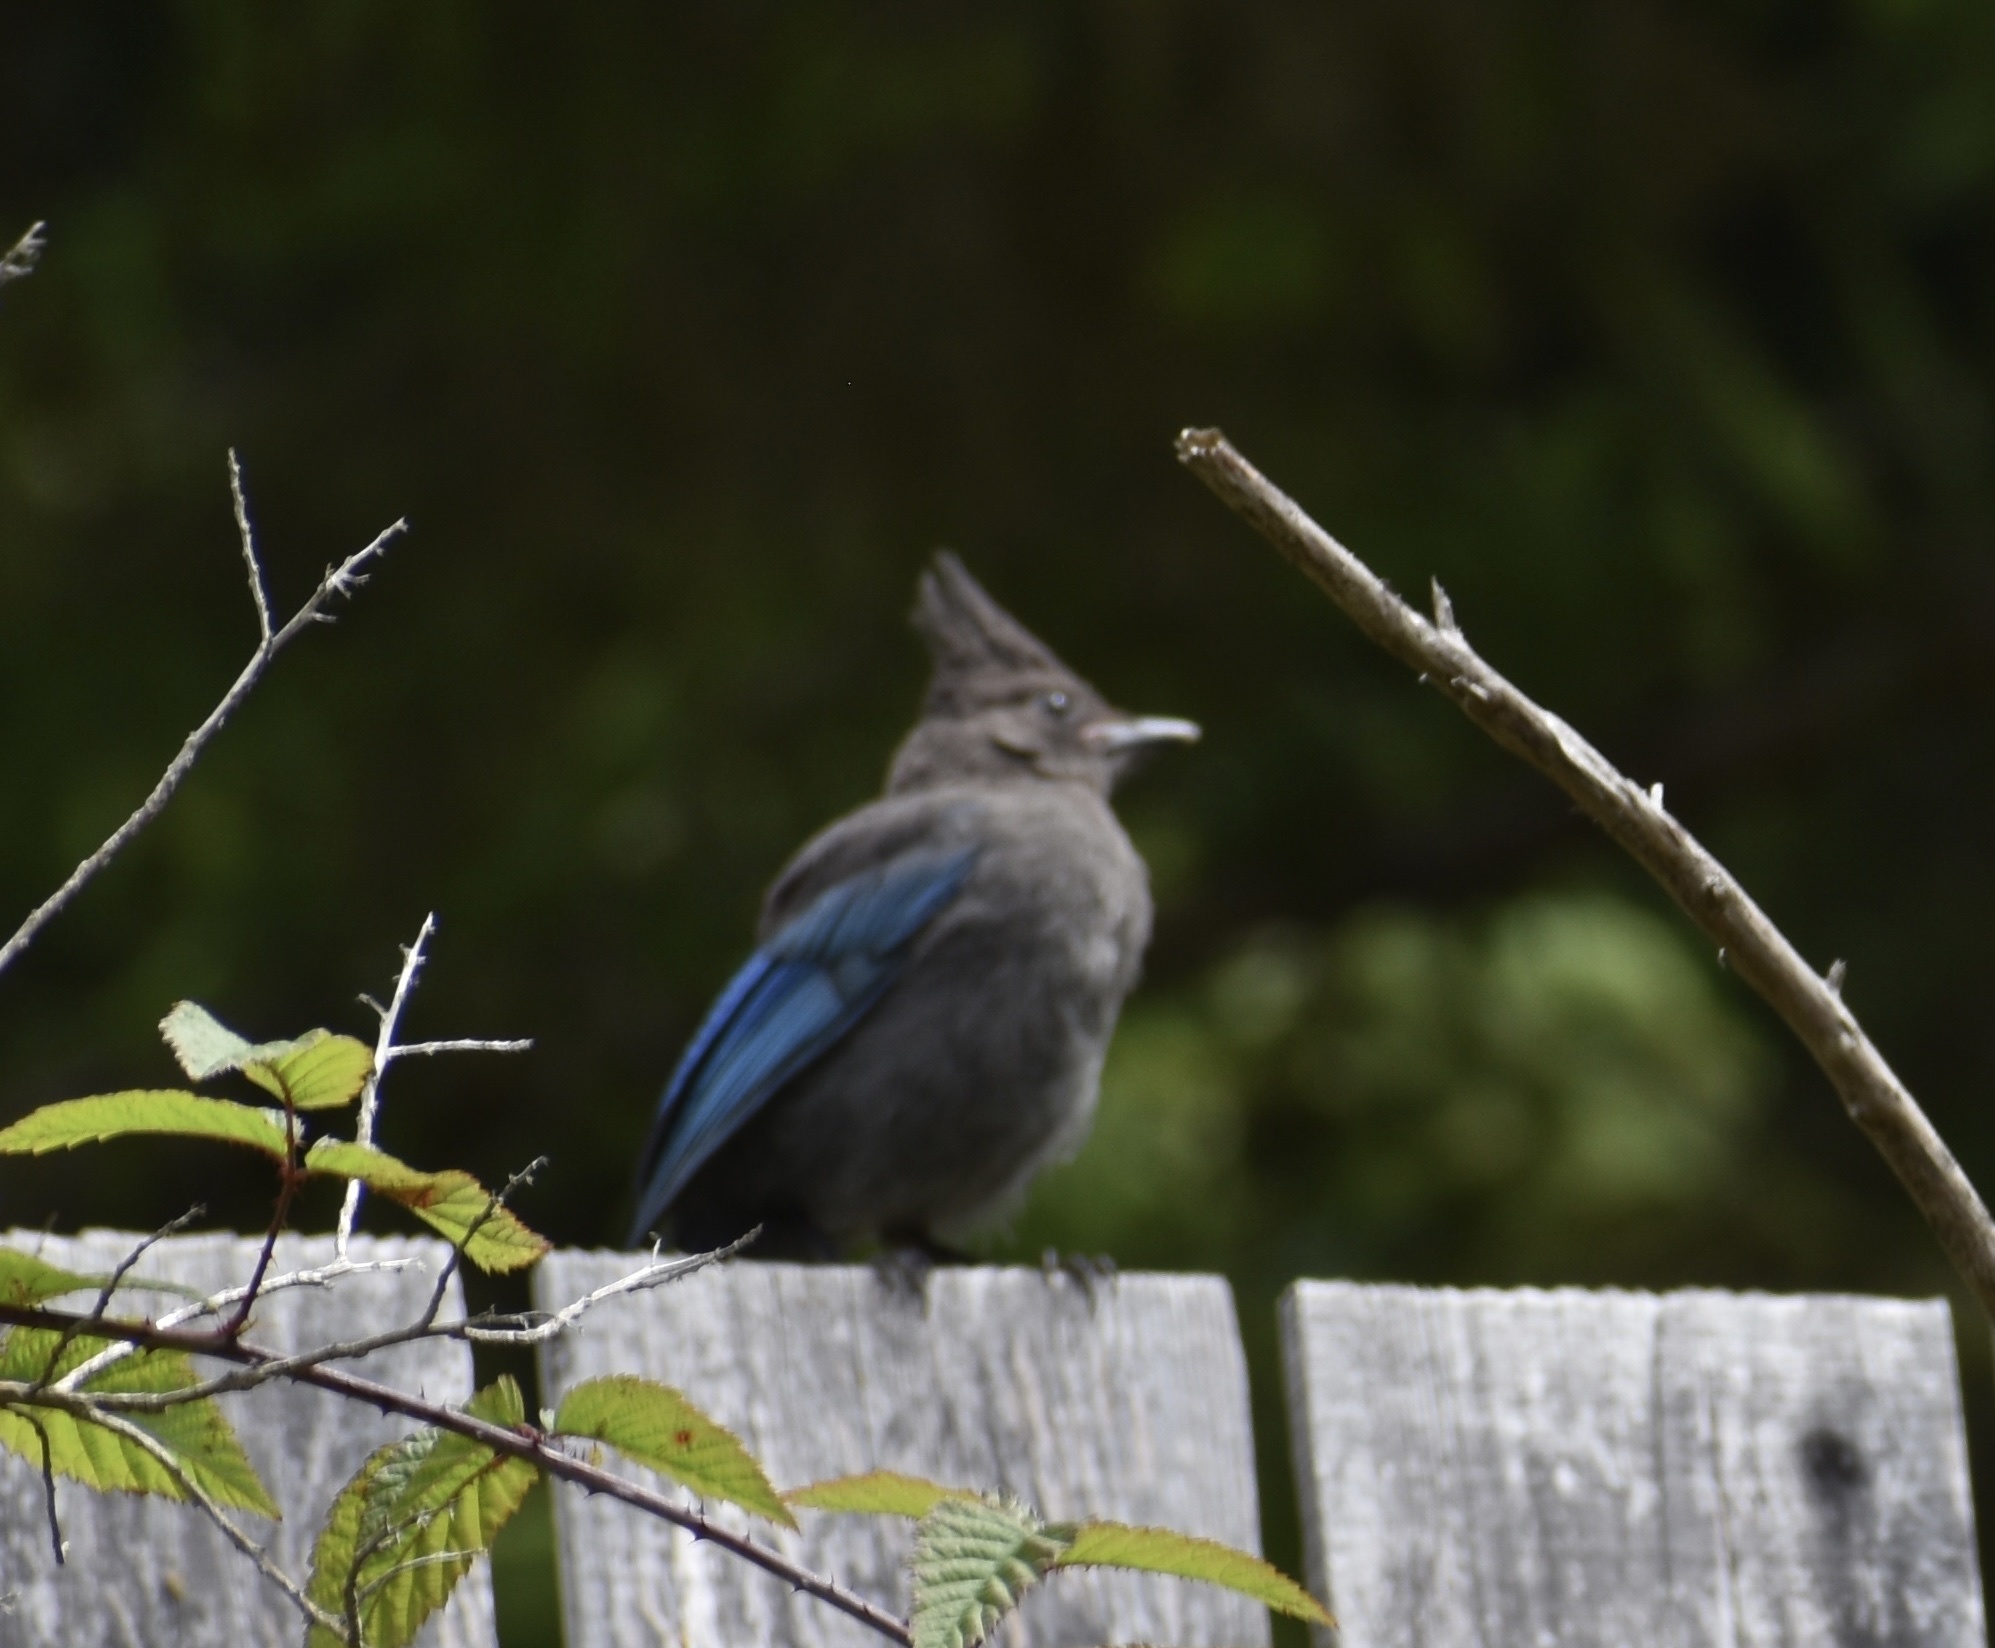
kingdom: Animalia
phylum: Chordata
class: Aves
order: Passeriformes
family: Corvidae
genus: Cyanocitta
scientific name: Cyanocitta stelleri
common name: Steller's jay
